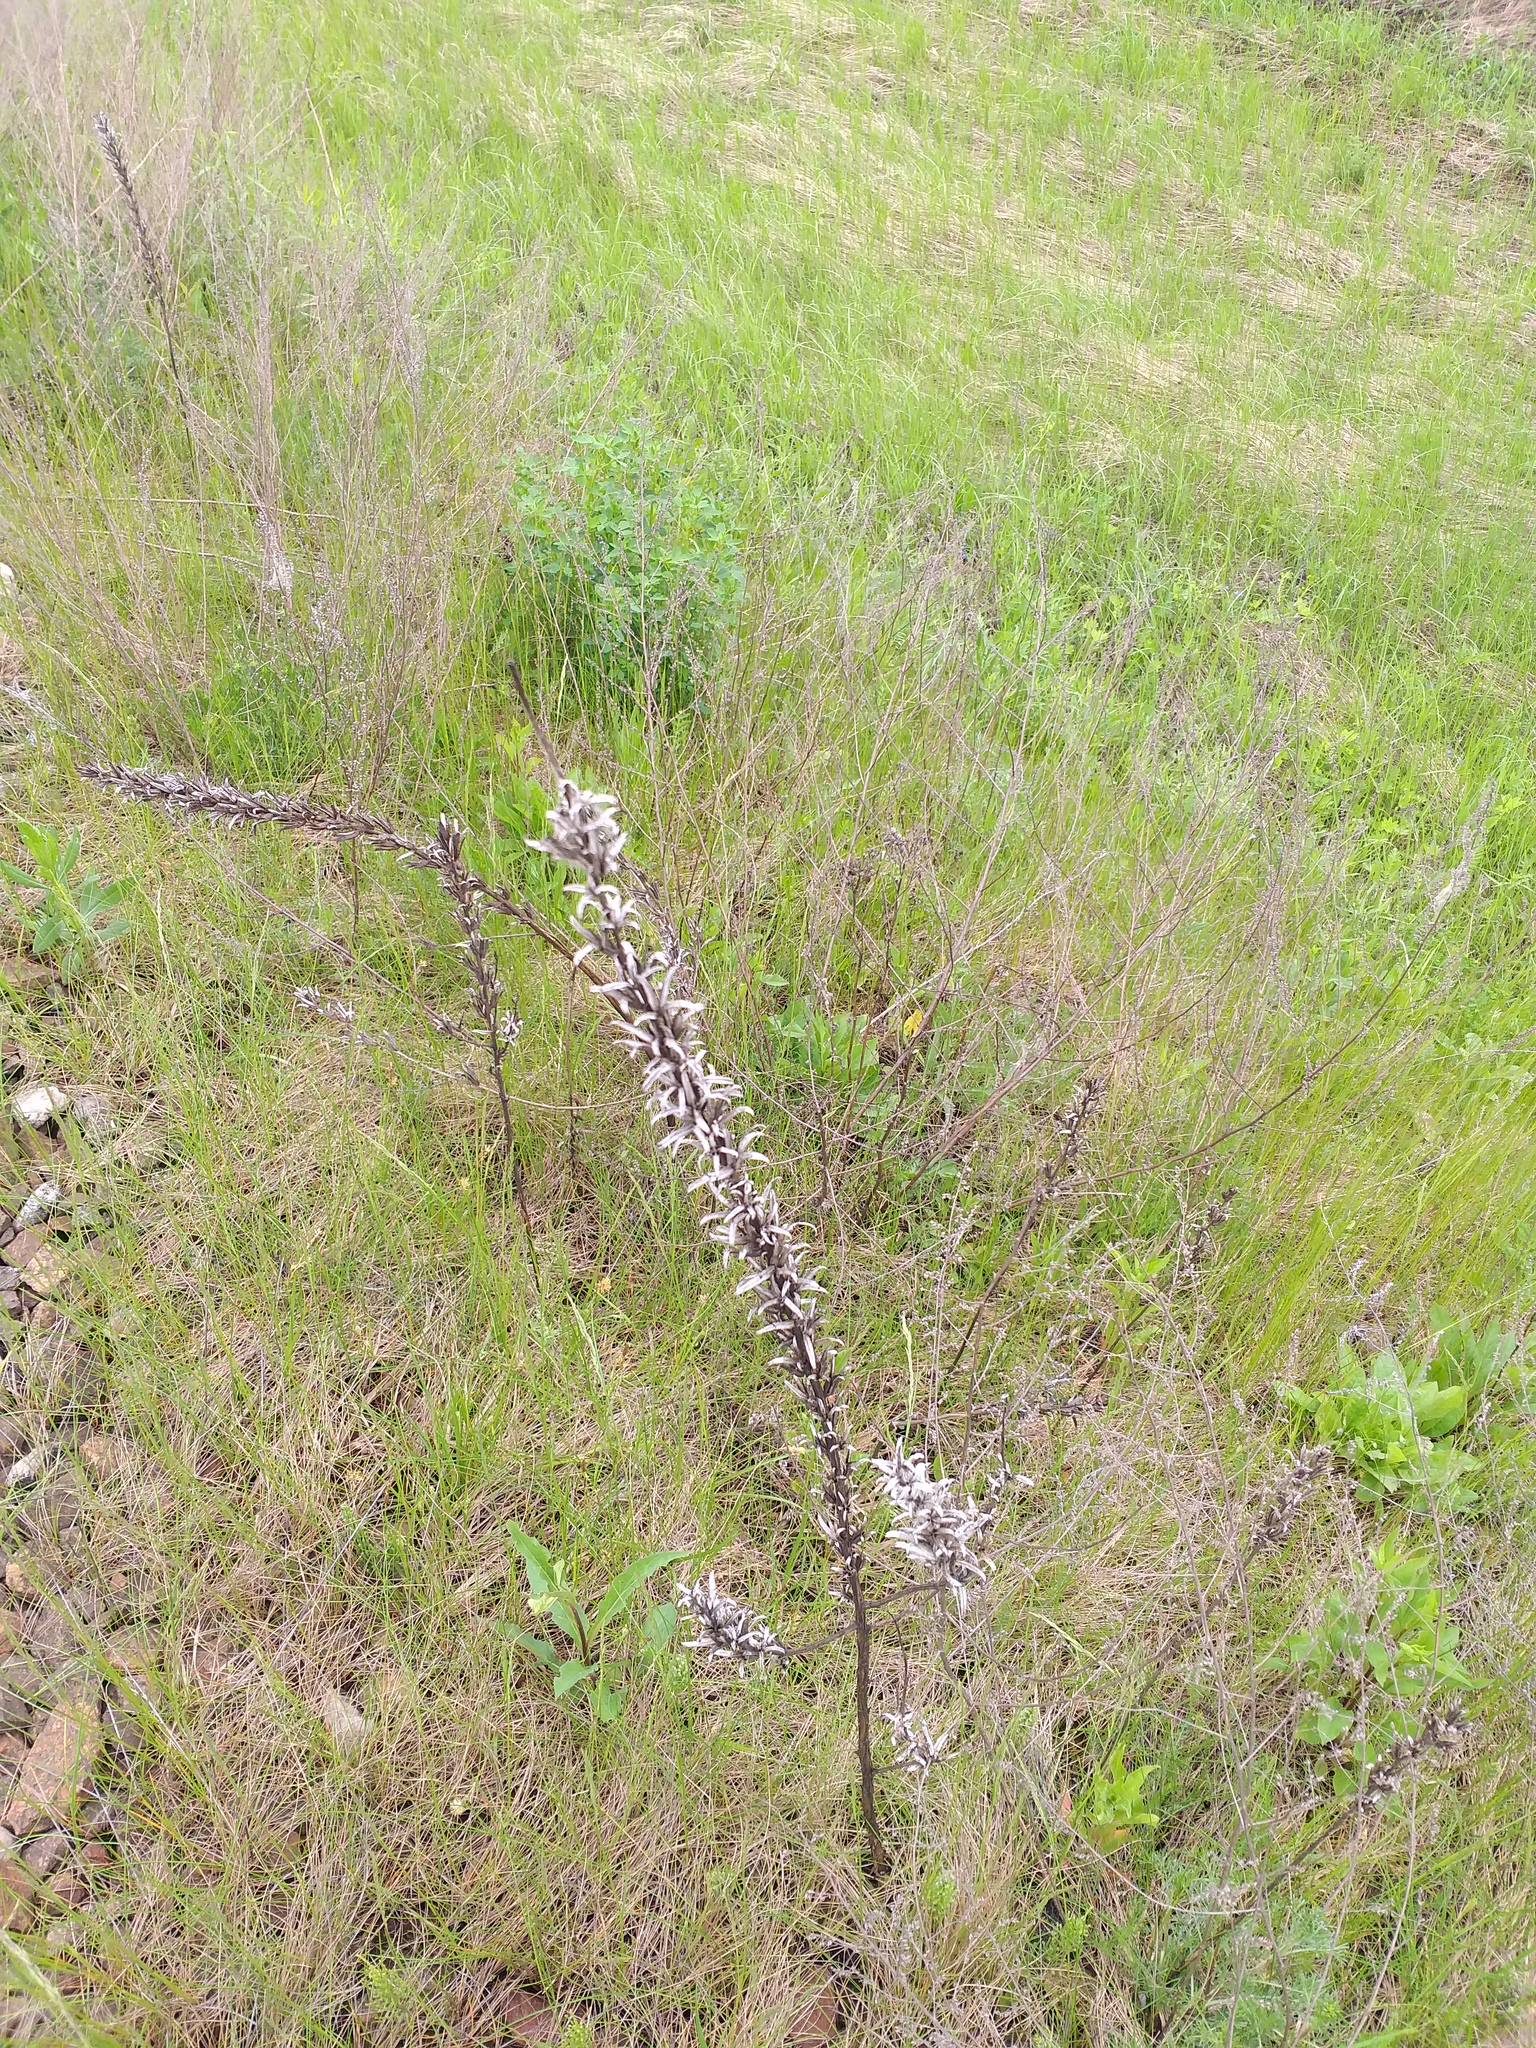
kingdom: Plantae
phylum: Tracheophyta
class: Magnoliopsida
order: Myrtales
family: Onagraceae
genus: Oenothera
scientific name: Oenothera
